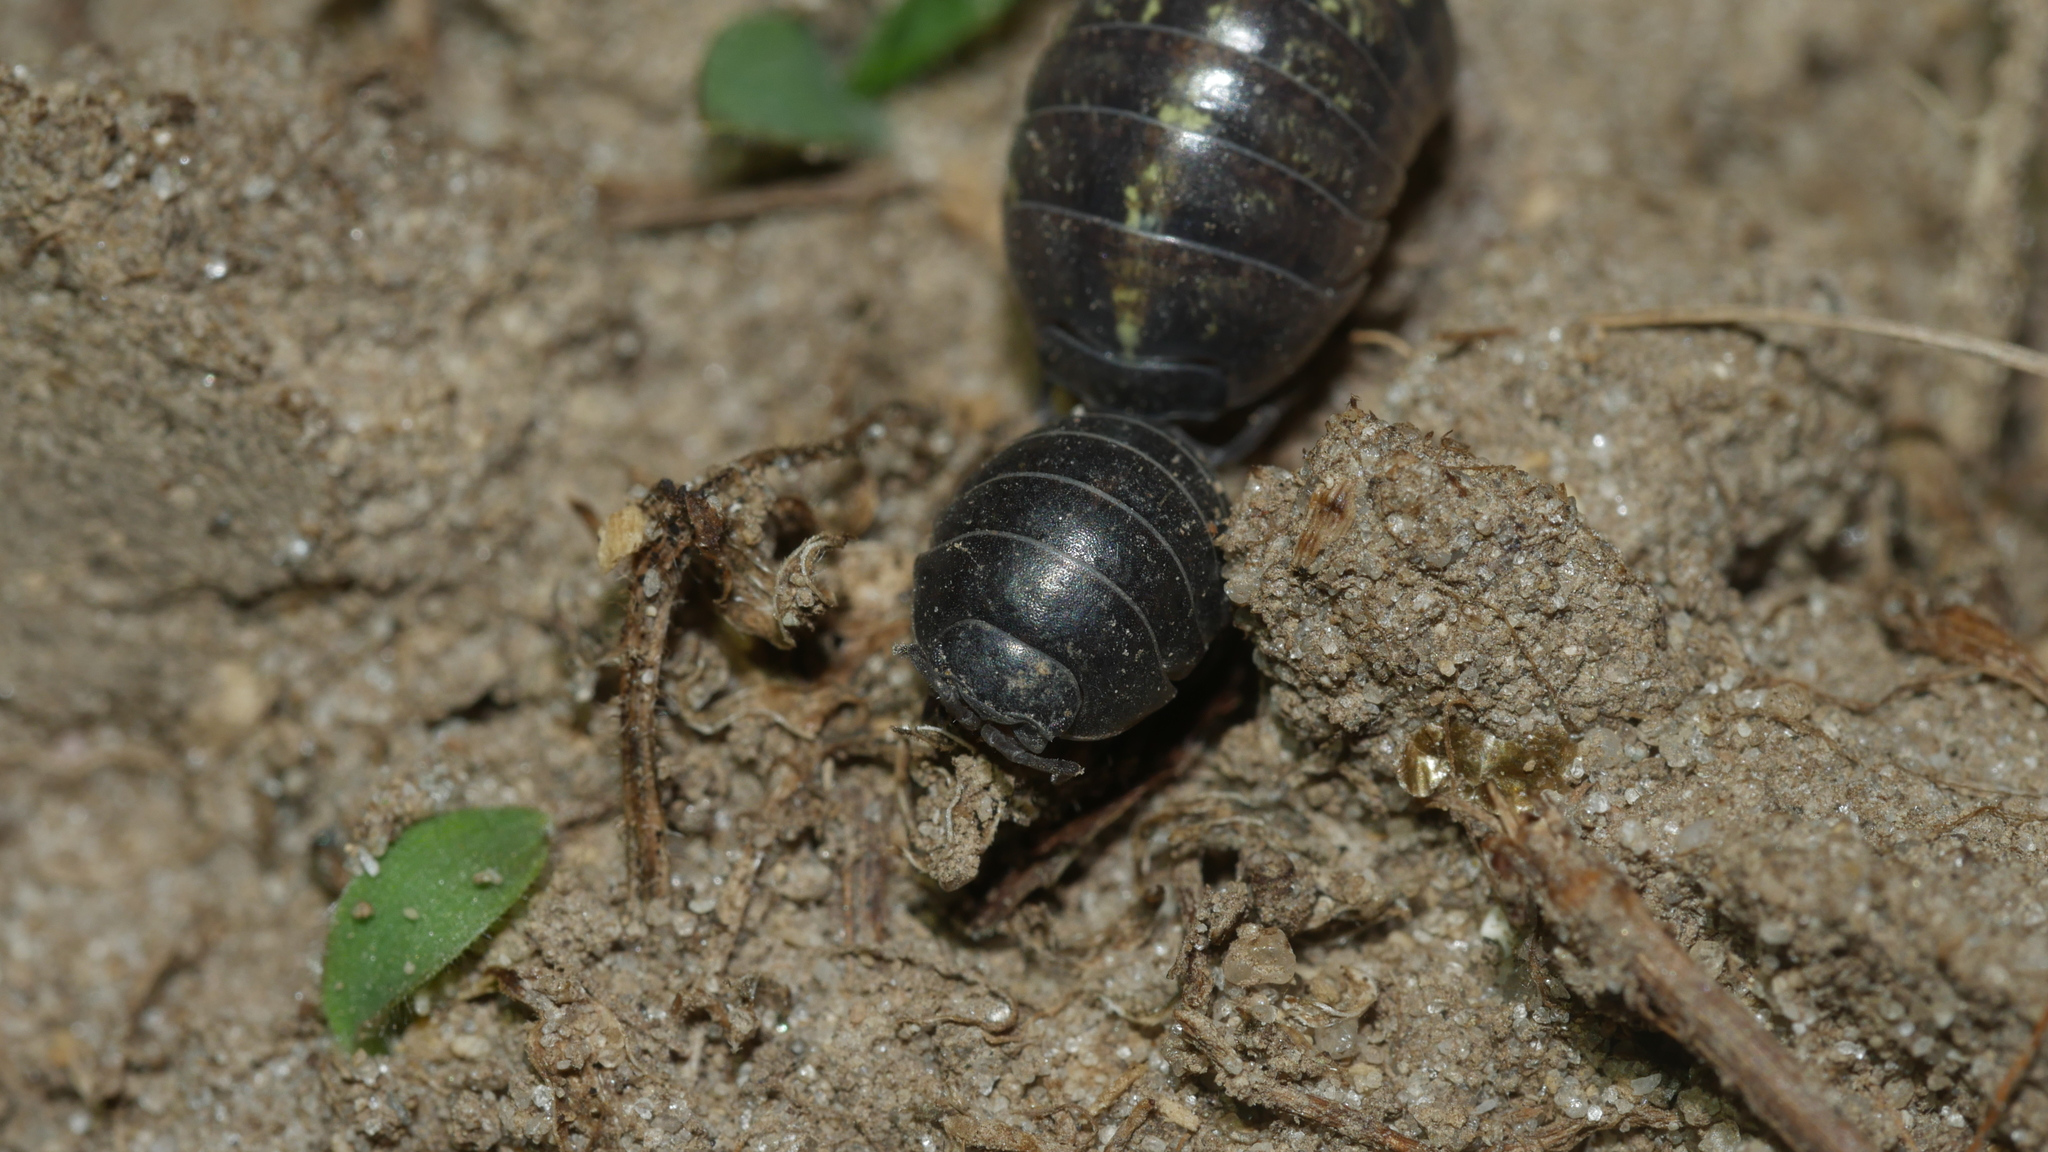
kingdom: Animalia
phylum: Arthropoda
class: Malacostraca
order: Isopoda
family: Armadillidiidae
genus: Armadillidium
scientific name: Armadillidium vulgare
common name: Common pill woodlouse
